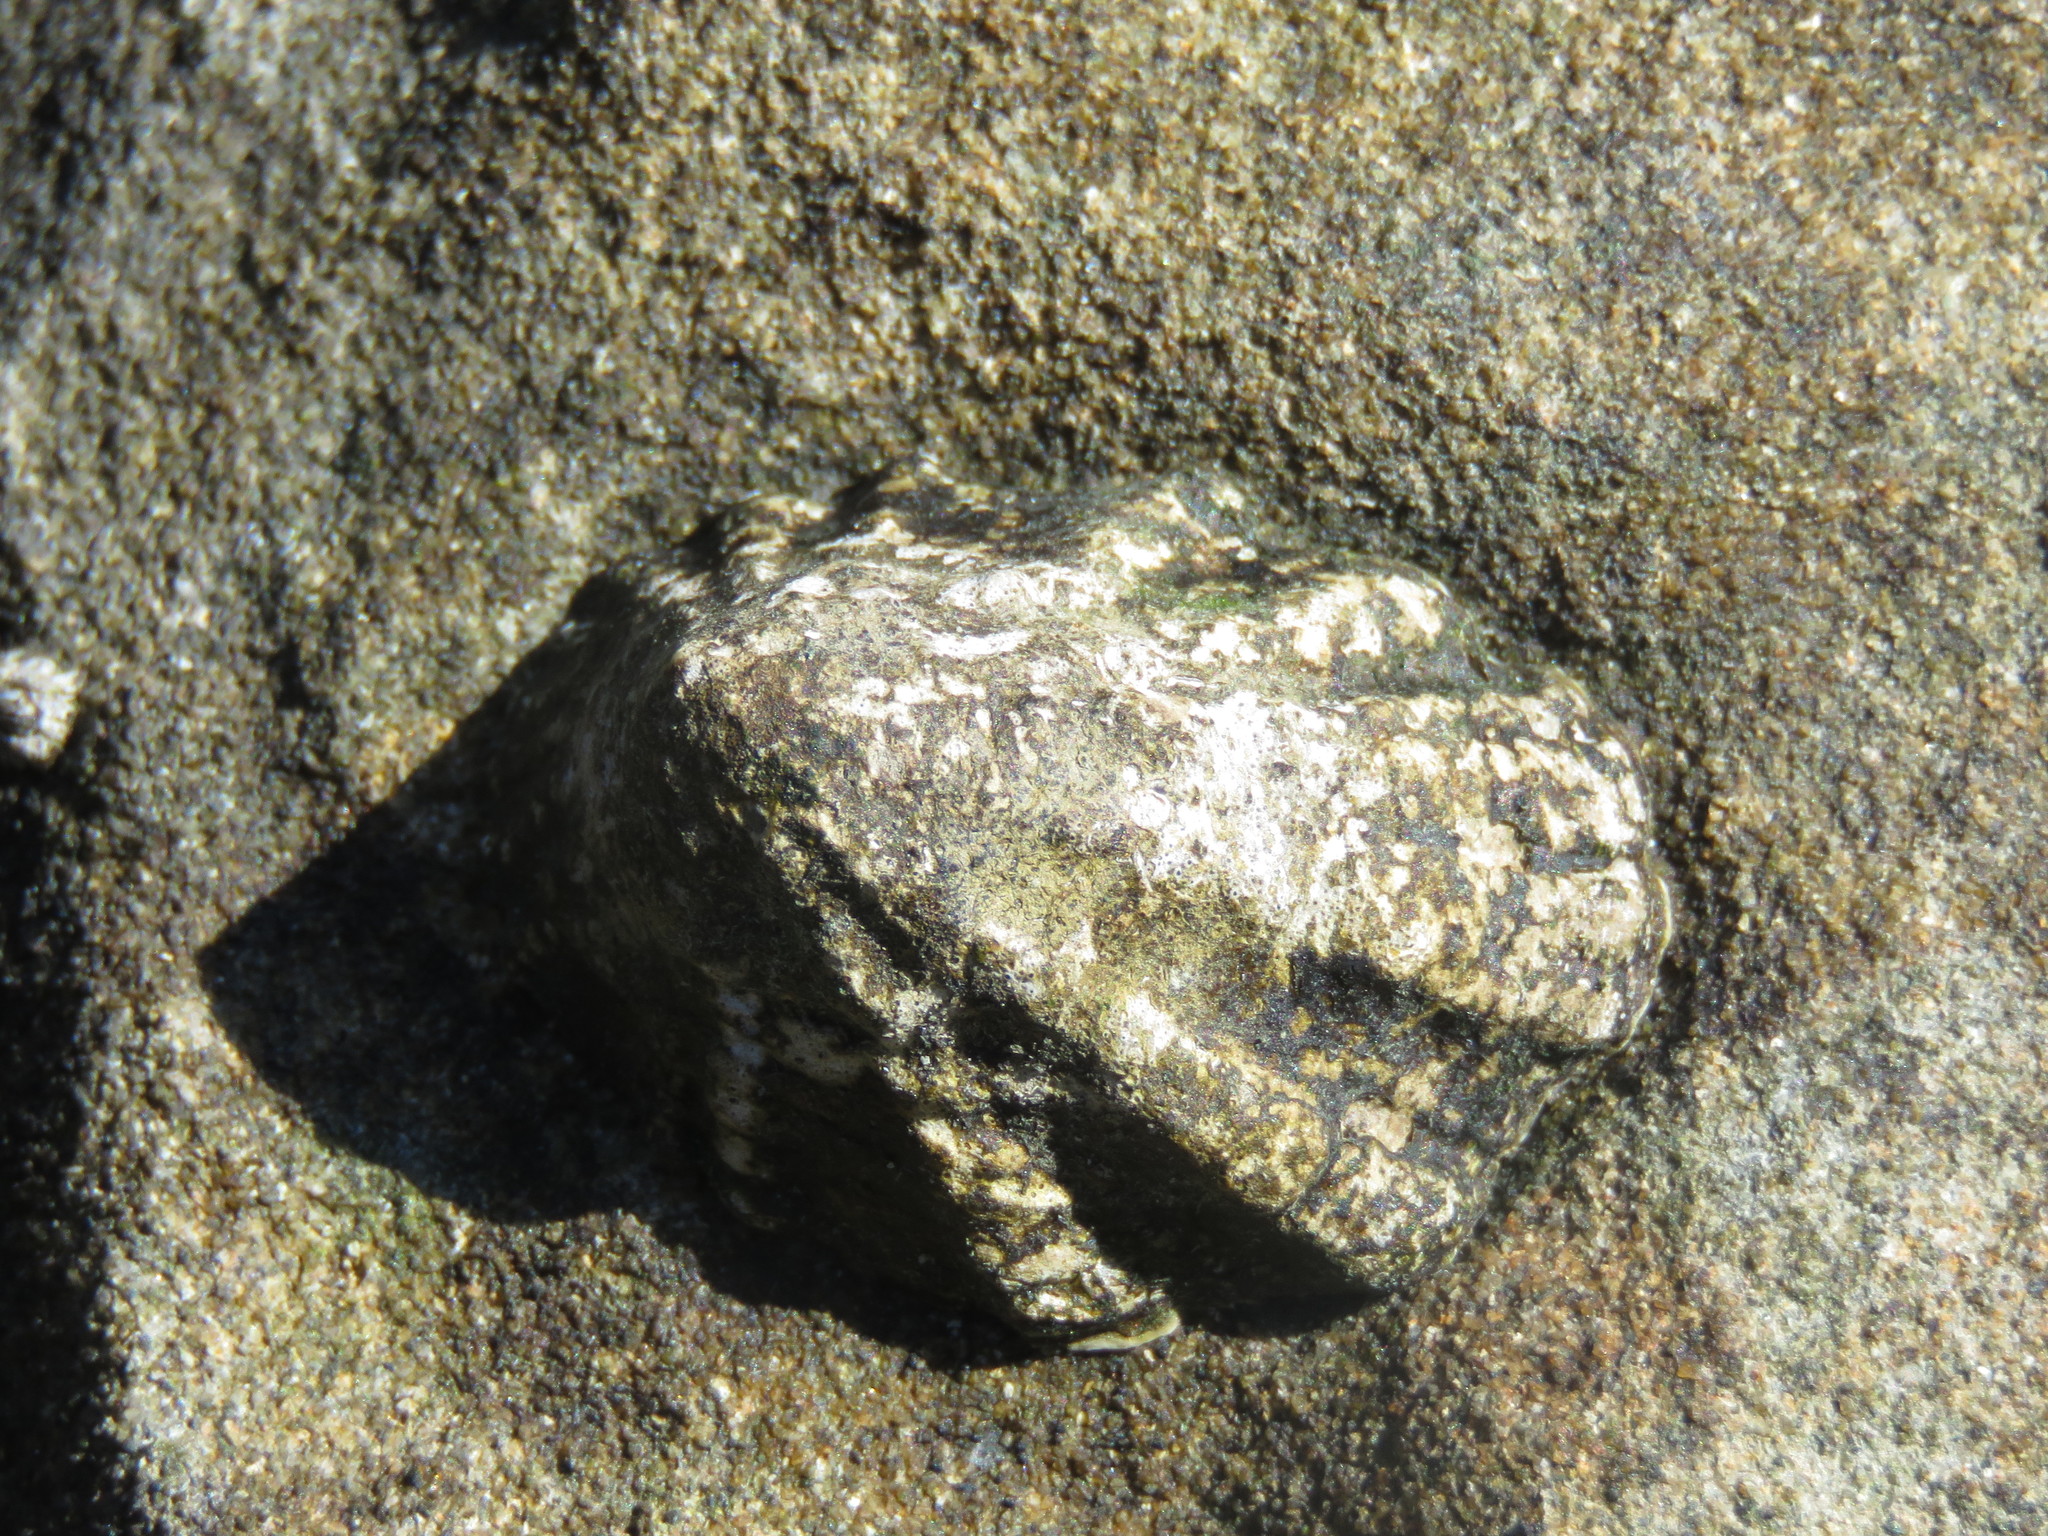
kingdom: Animalia
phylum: Mollusca
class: Gastropoda
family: Lottiidae
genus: Lottia
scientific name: Lottia digitalis
